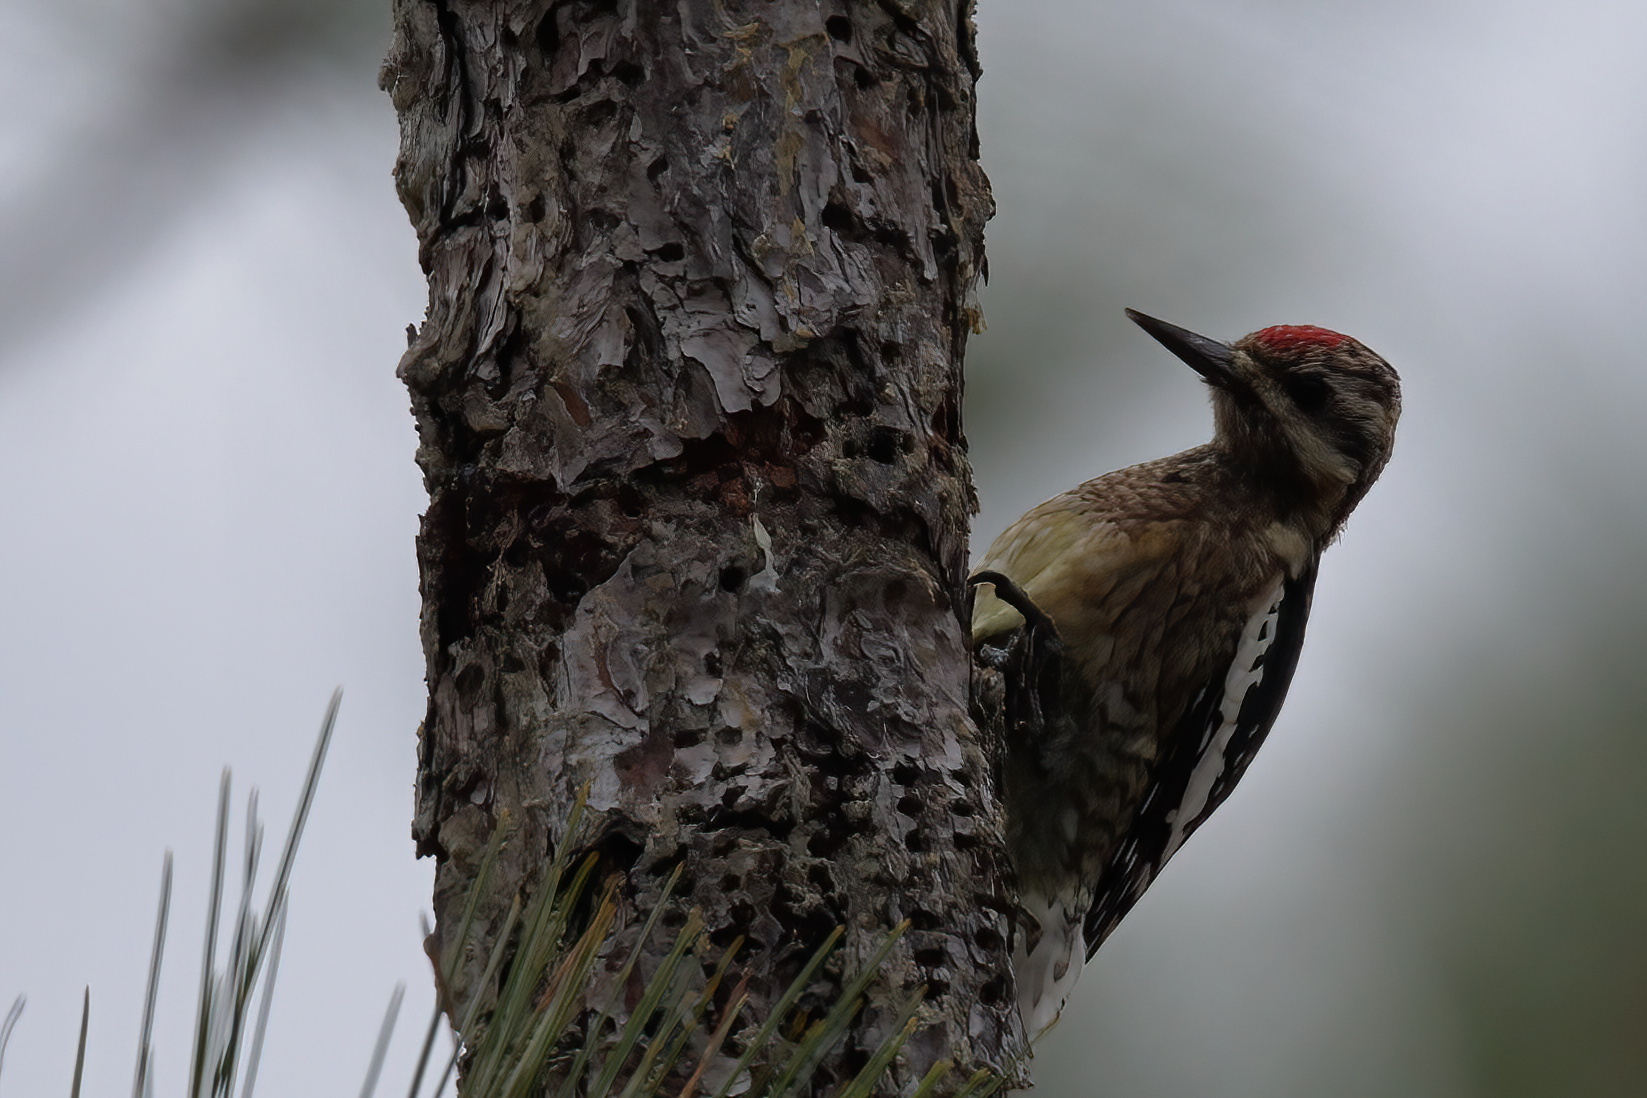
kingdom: Animalia
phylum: Chordata
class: Aves
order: Piciformes
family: Picidae
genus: Sphyrapicus
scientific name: Sphyrapicus varius
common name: Yellow-bellied sapsucker
